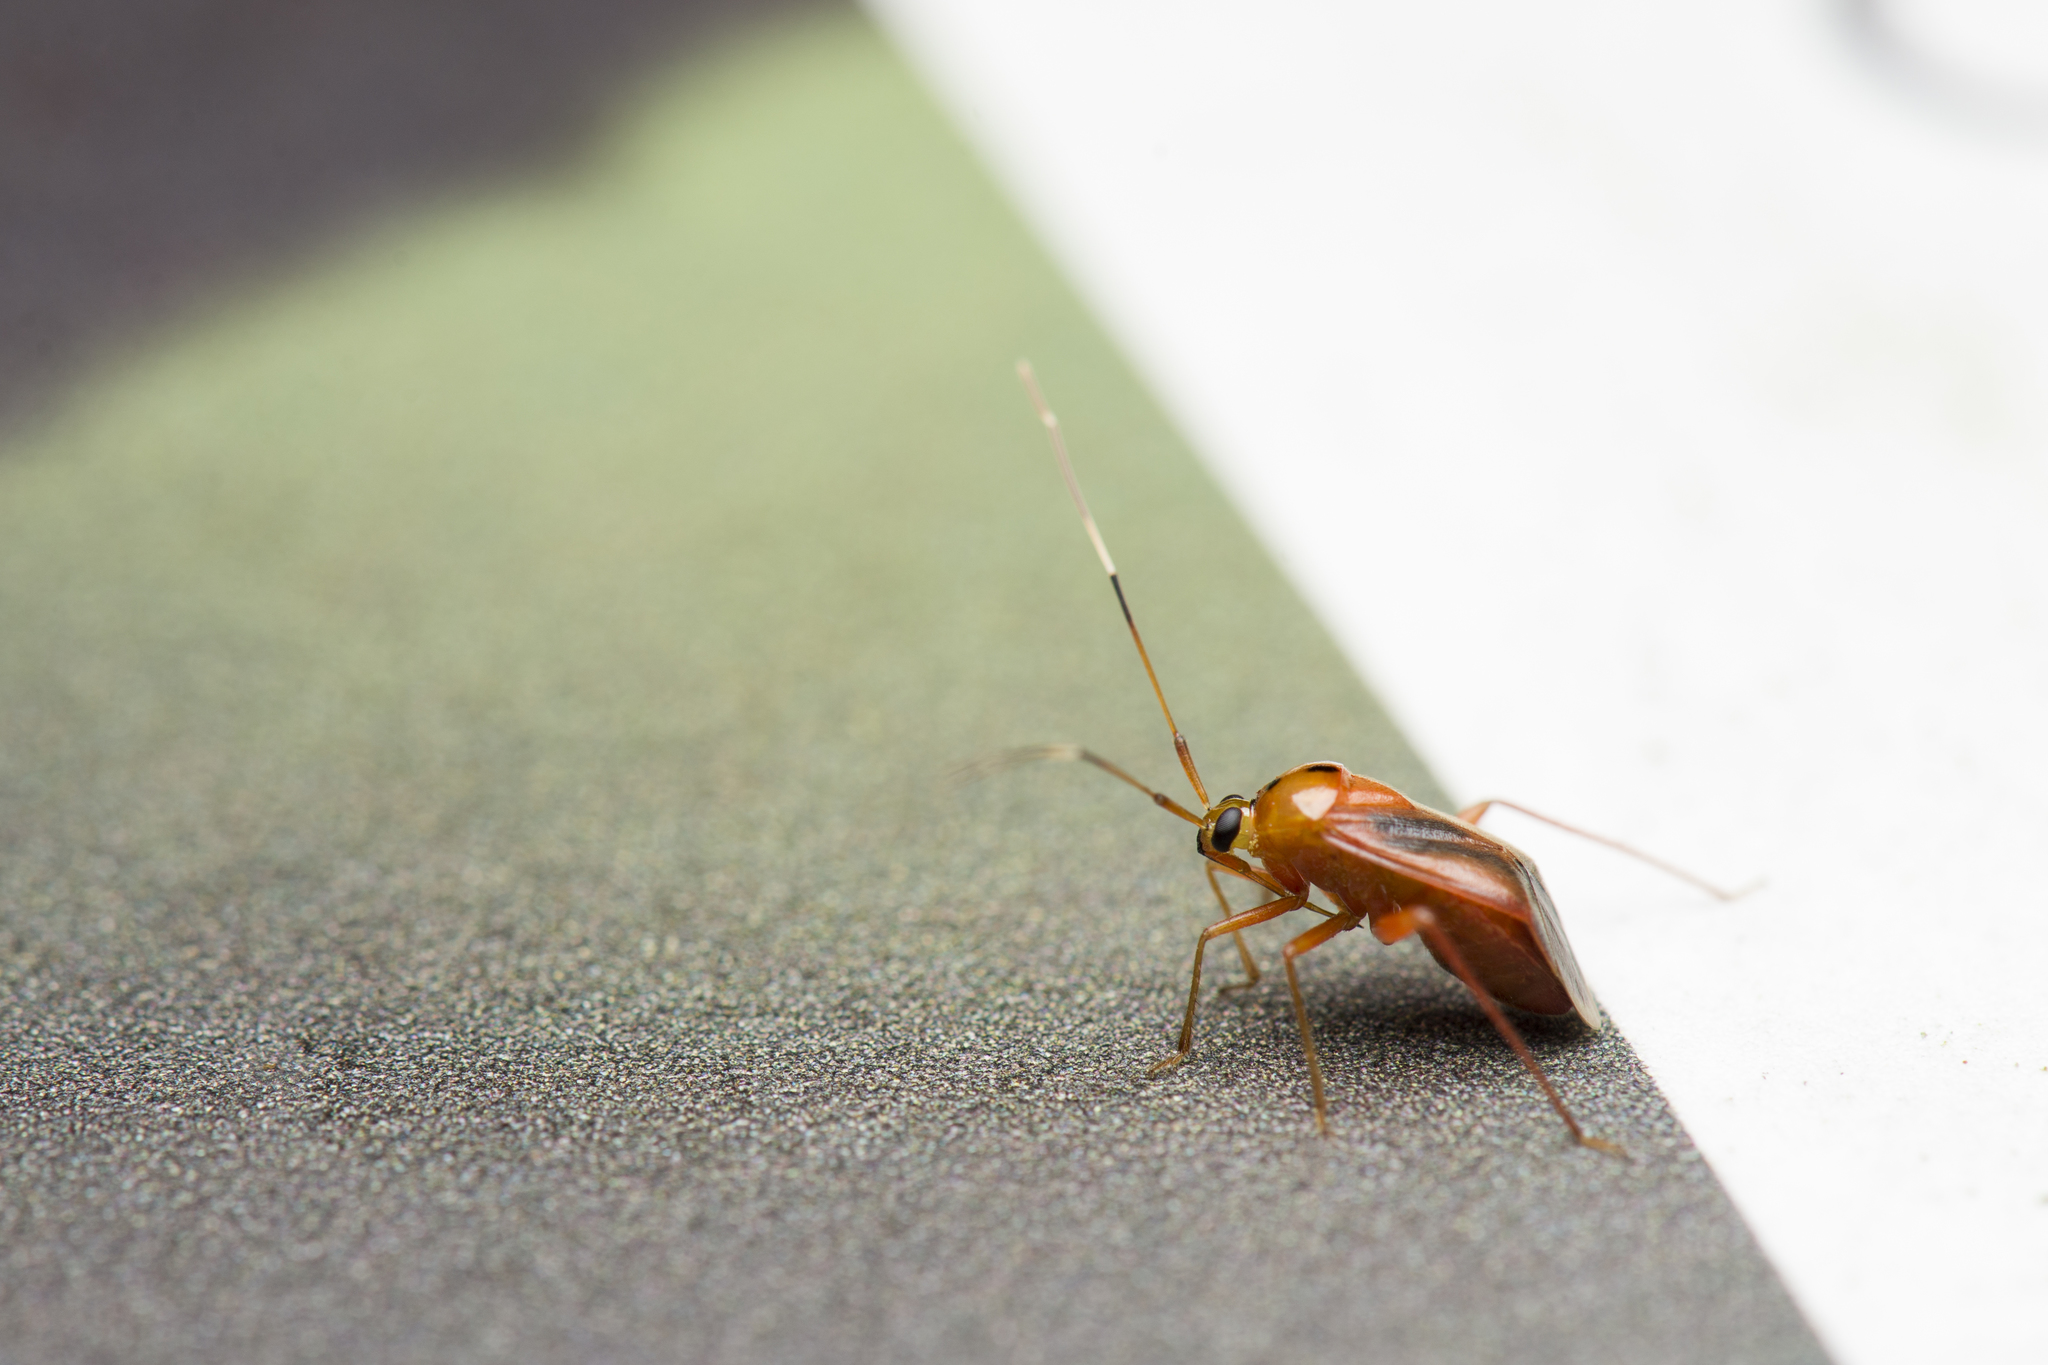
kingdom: Animalia
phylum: Arthropoda
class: Insecta
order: Hemiptera
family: Miridae
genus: Poppiocapsidea
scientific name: Poppiocapsidea clypealis
